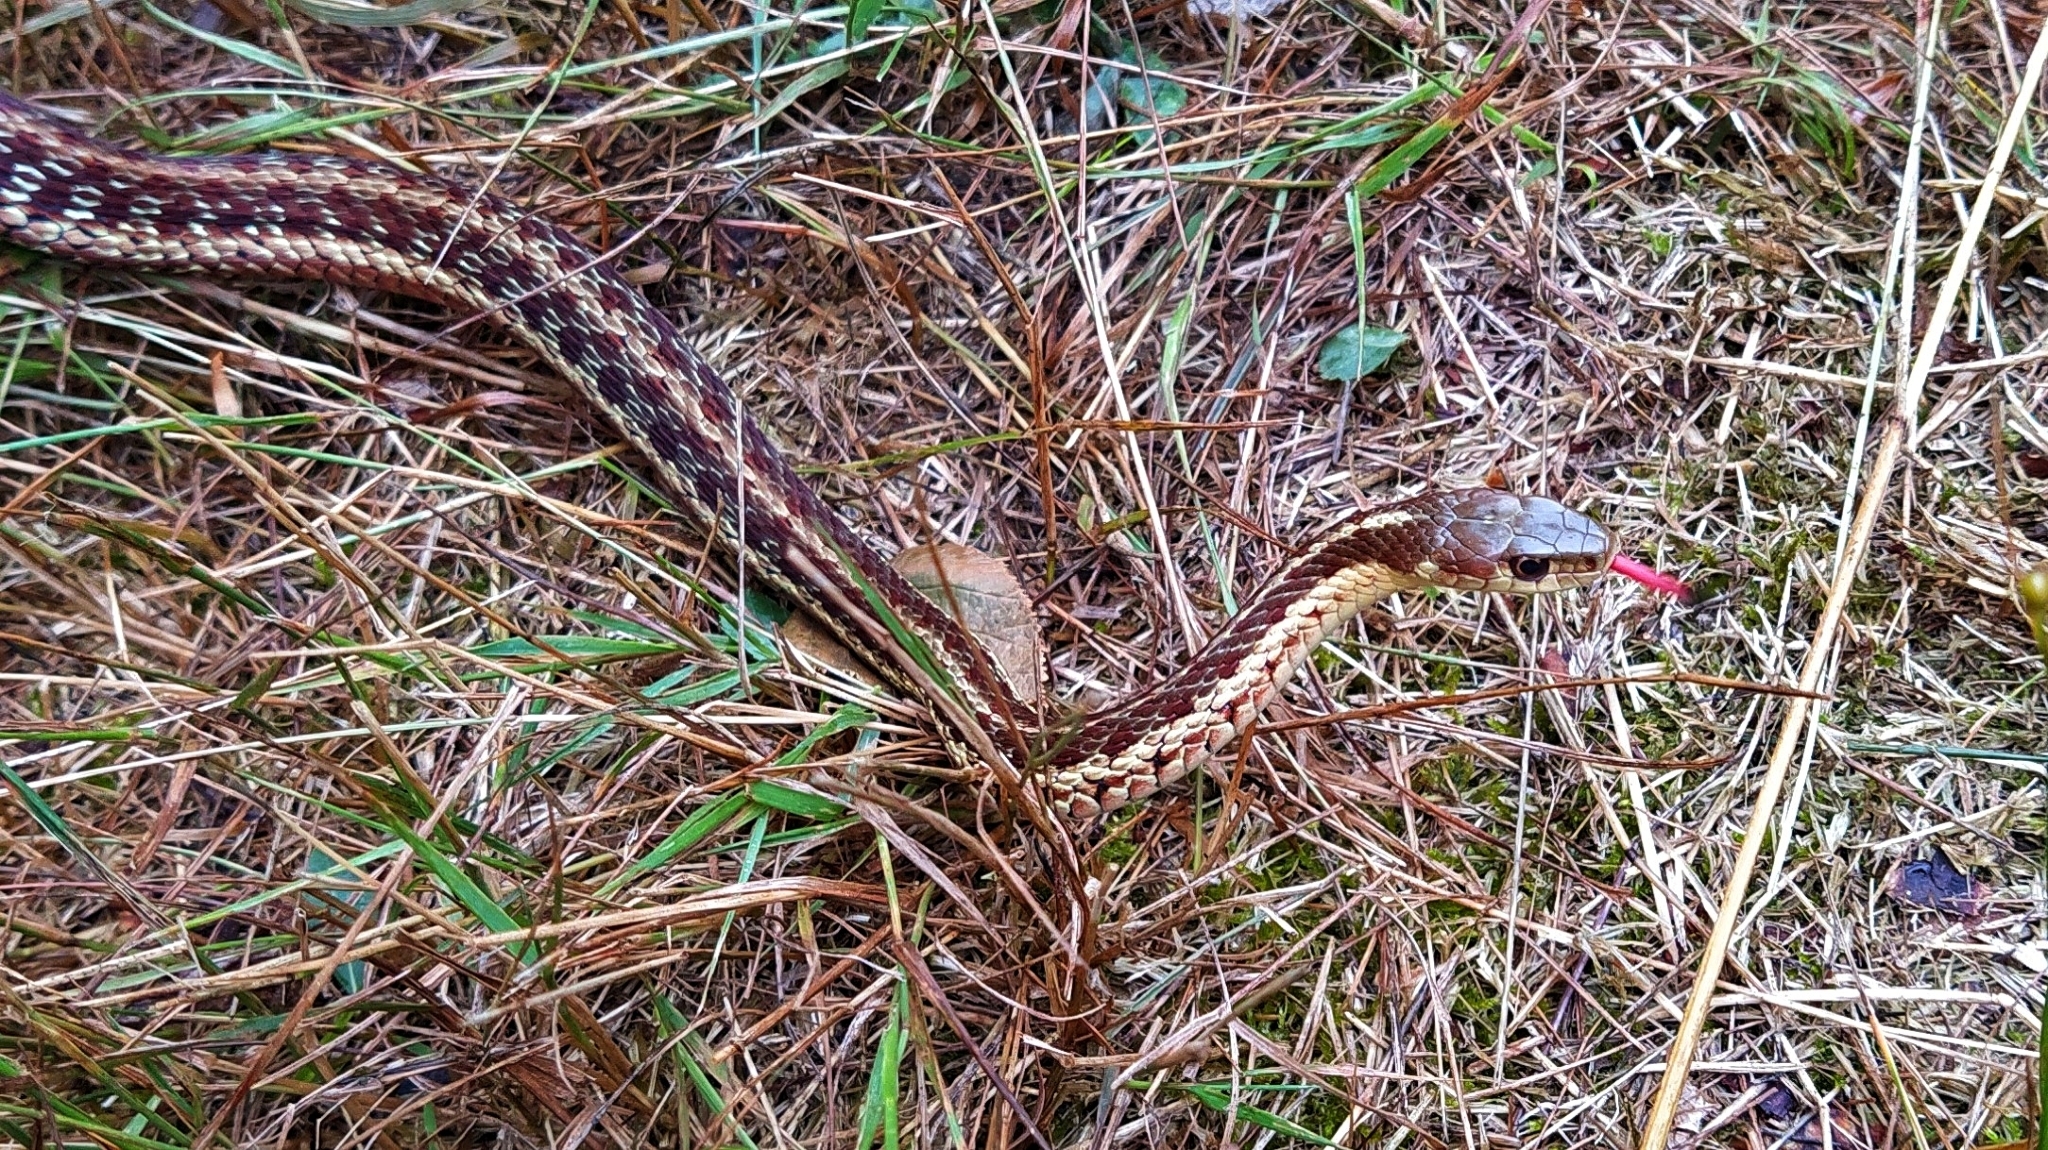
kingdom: Animalia
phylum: Chordata
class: Squamata
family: Colubridae
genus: Thamnophis
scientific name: Thamnophis sirtalis
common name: Common garter snake
